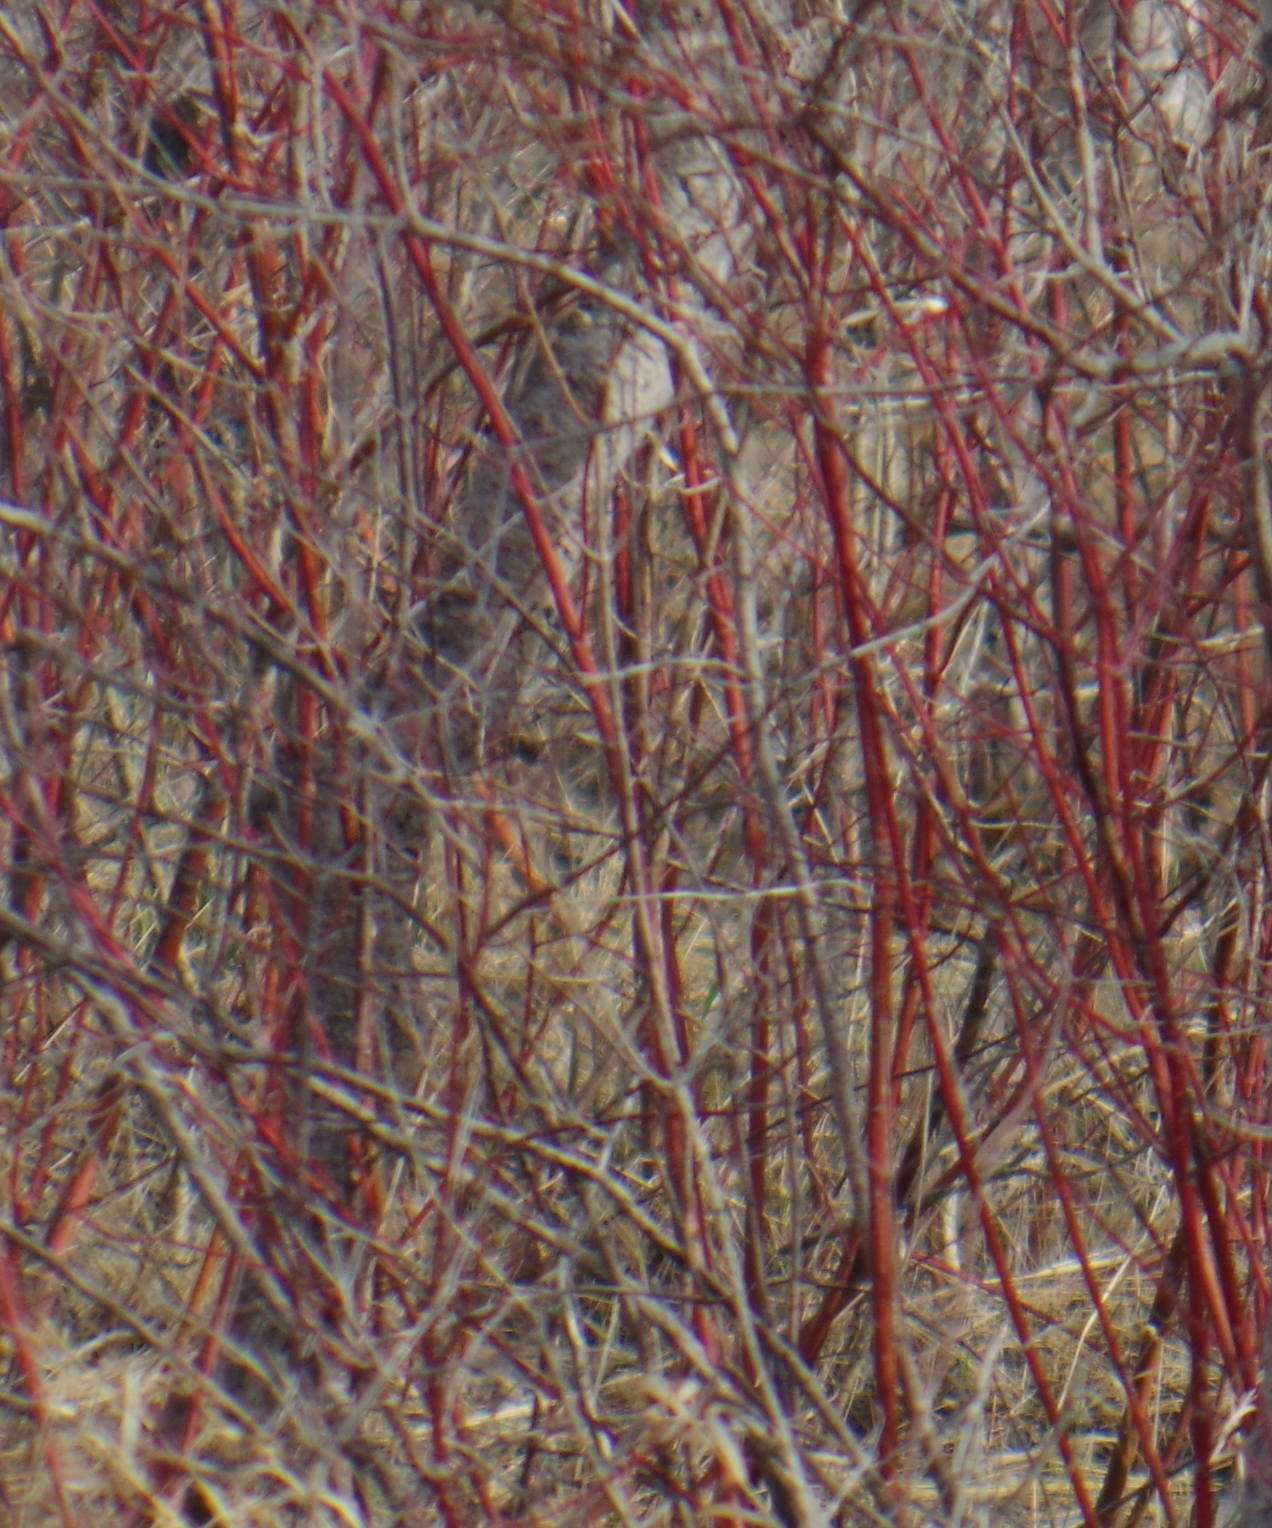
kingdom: Plantae
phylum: Tracheophyta
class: Magnoliopsida
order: Cornales
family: Cornaceae
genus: Cornus
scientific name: Cornus sericea
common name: Red-osier dogwood
